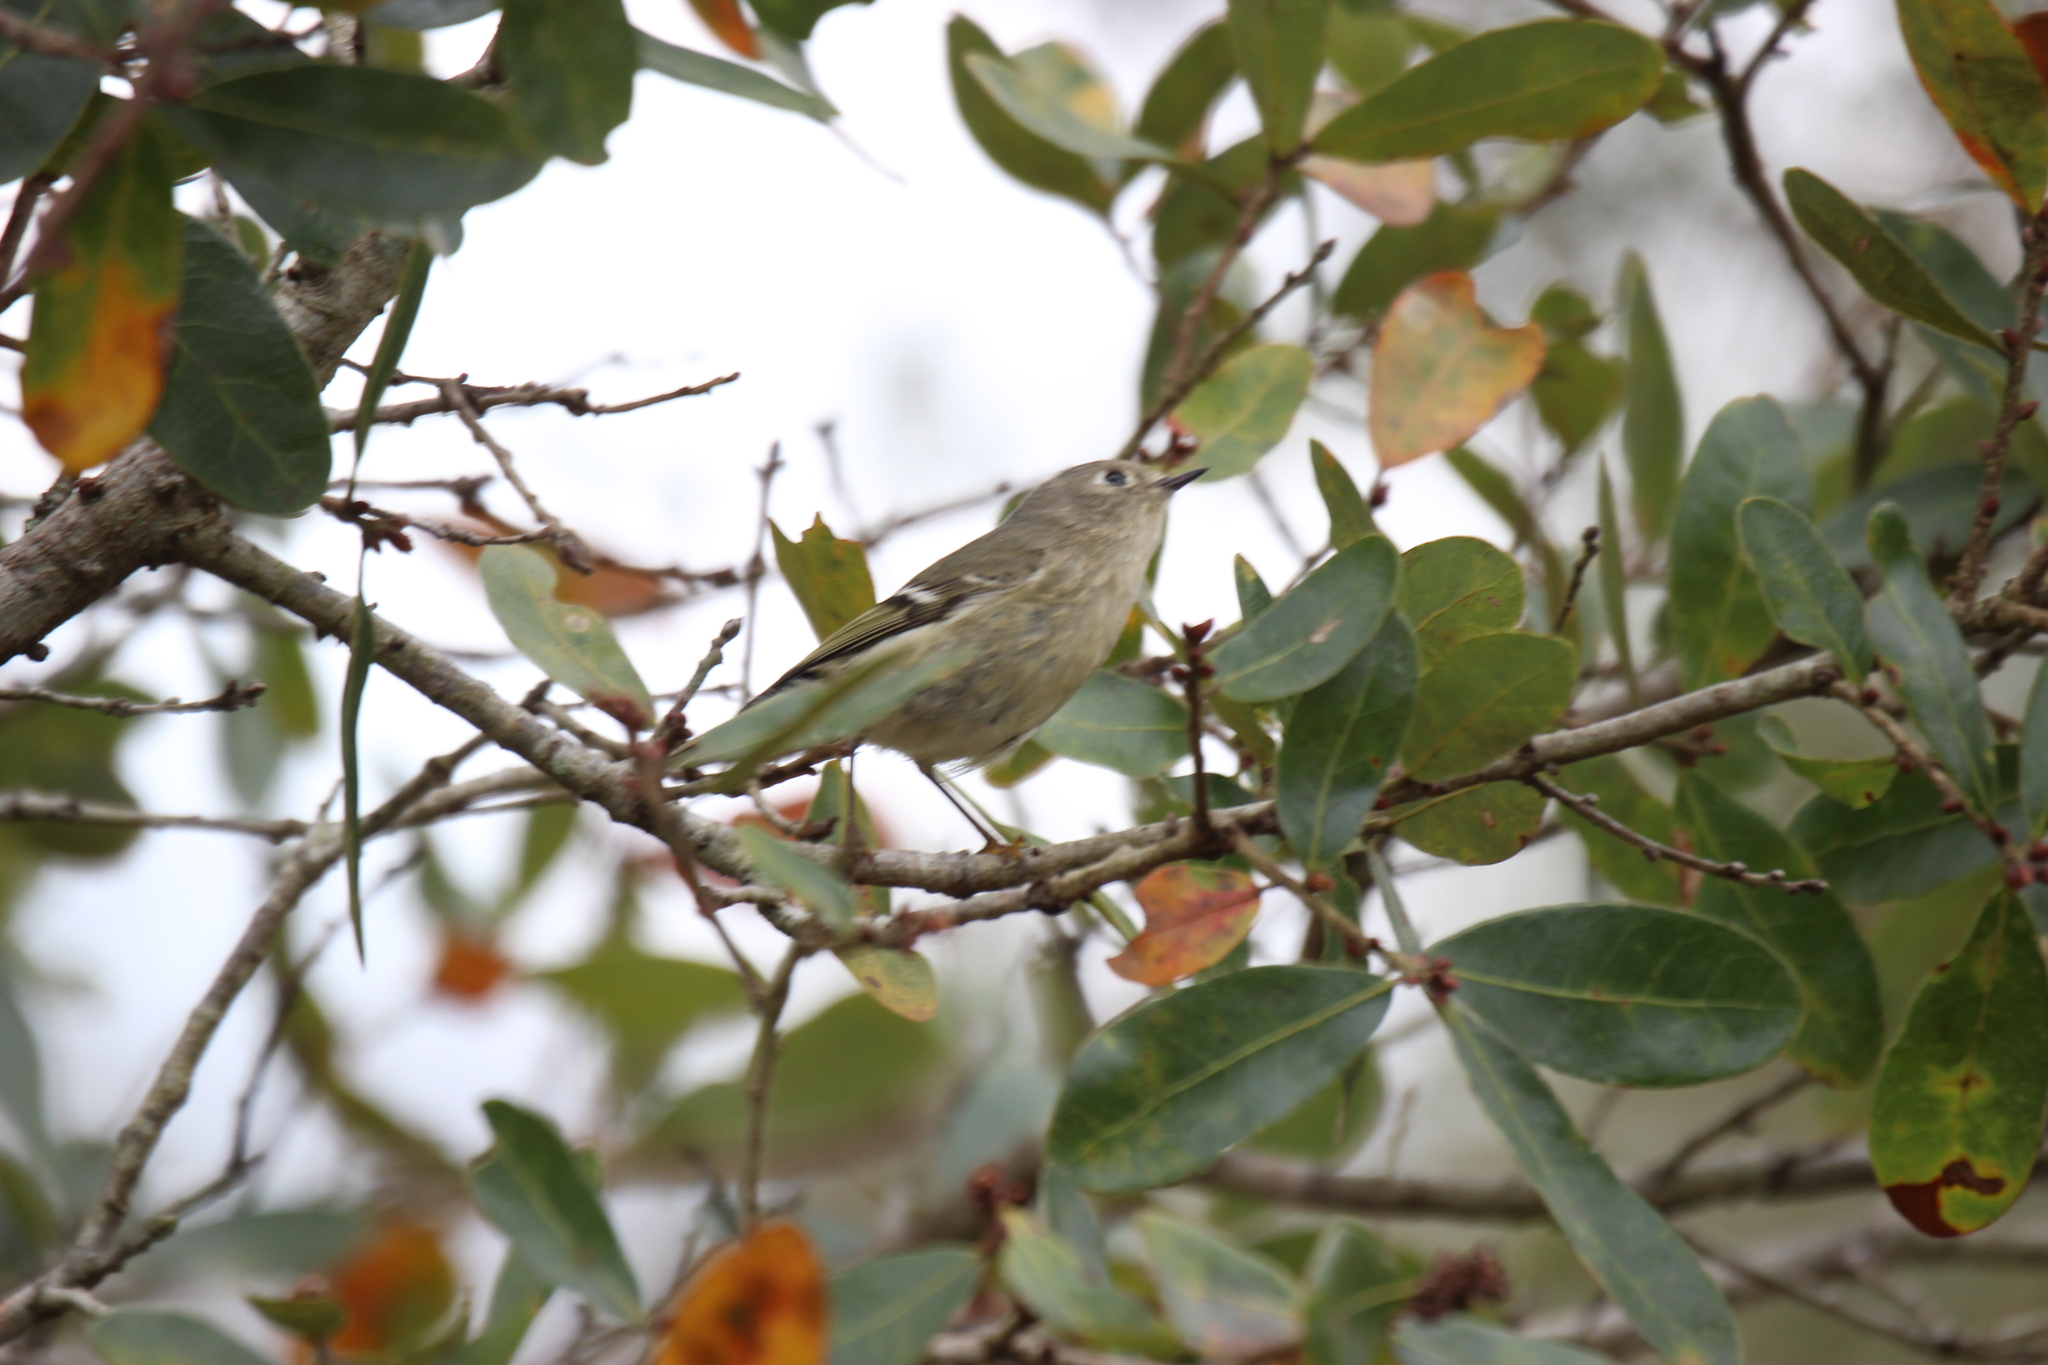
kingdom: Animalia
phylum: Chordata
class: Aves
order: Passeriformes
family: Regulidae
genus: Regulus
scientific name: Regulus calendula
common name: Ruby-crowned kinglet
